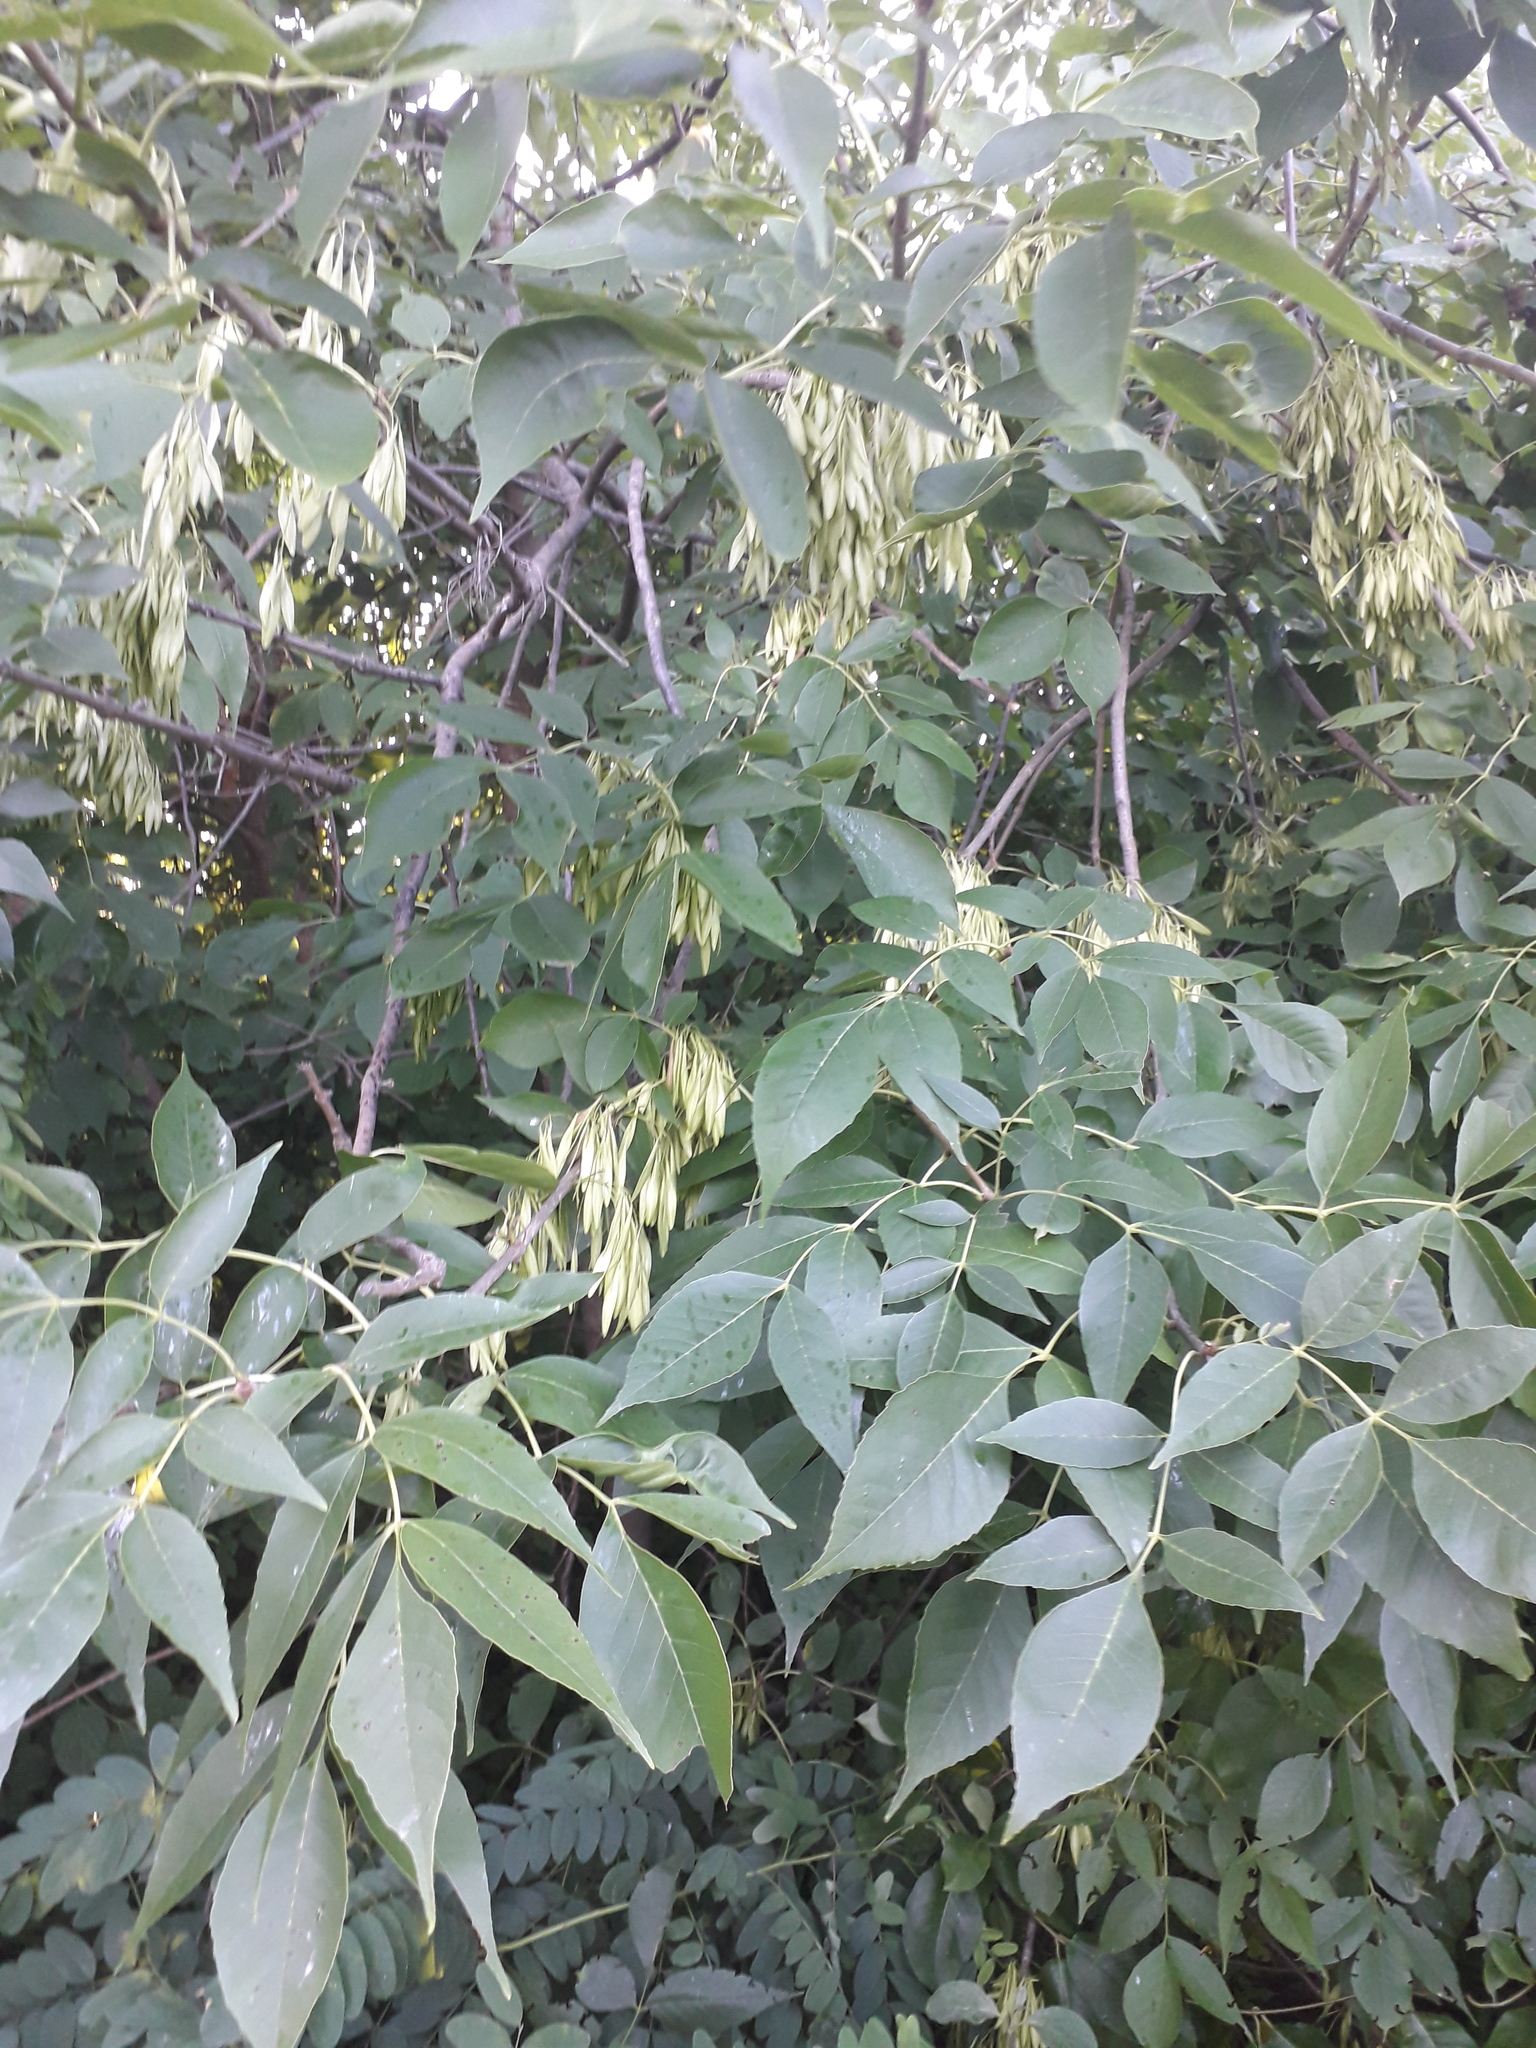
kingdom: Plantae
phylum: Tracheophyta
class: Magnoliopsida
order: Lamiales
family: Oleaceae
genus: Fraxinus
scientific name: Fraxinus pennsylvanica
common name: Green ash
